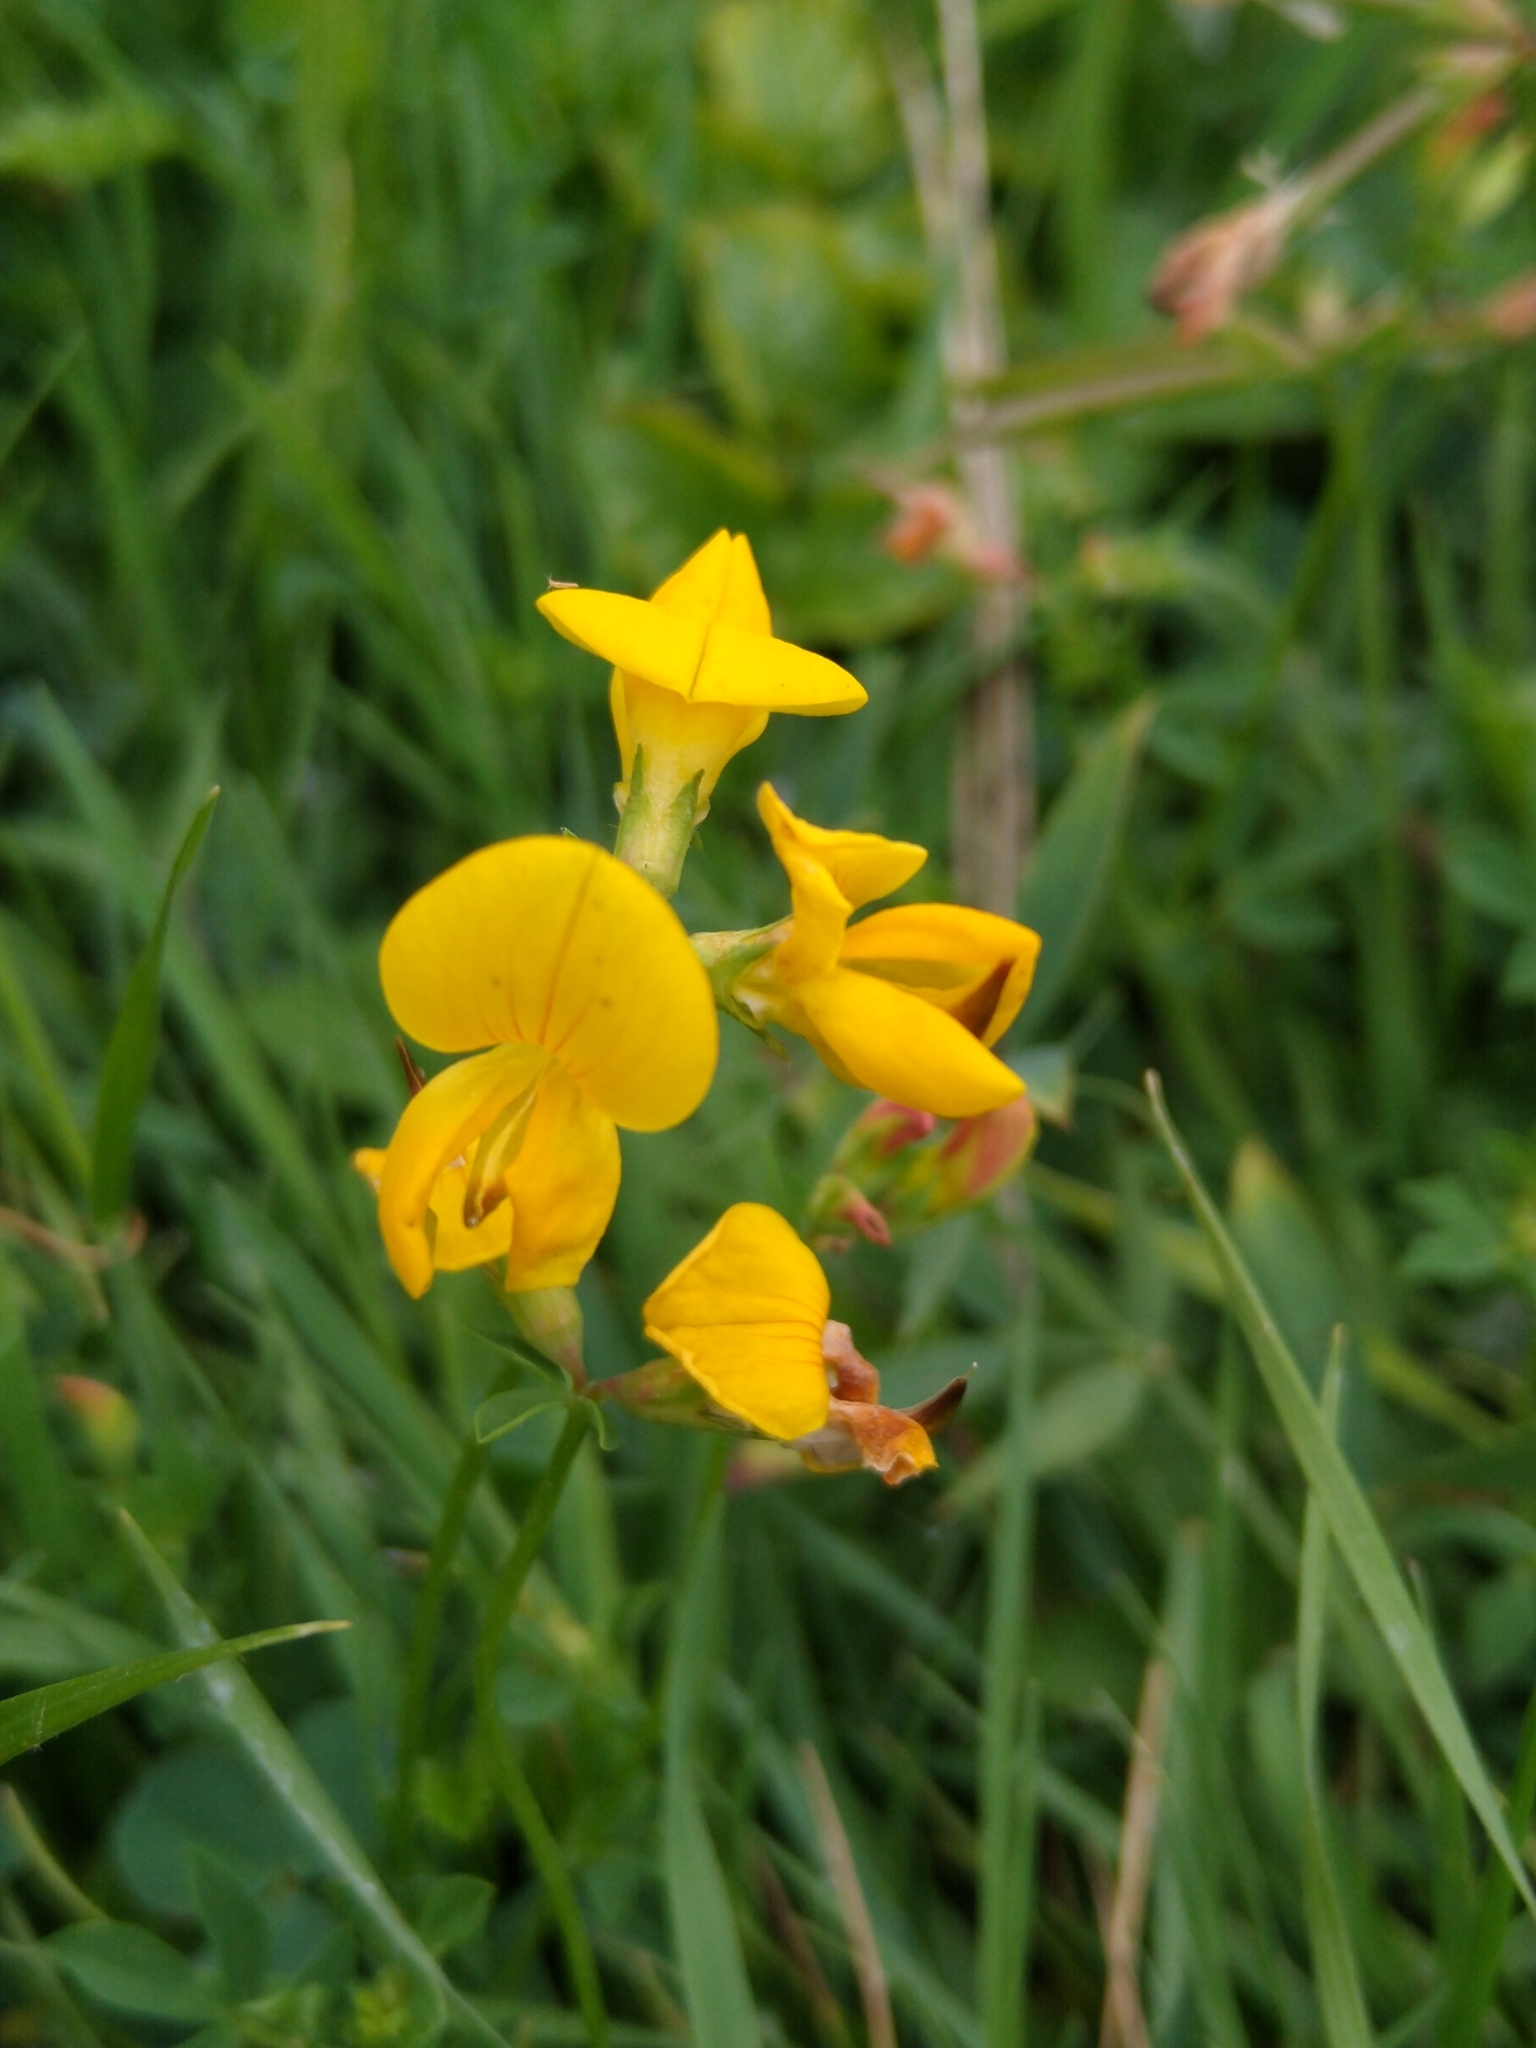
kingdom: Plantae
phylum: Tracheophyta
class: Magnoliopsida
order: Fabales
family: Fabaceae
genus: Lotus
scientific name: Lotus corniculatus
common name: Common bird's-foot-trefoil
